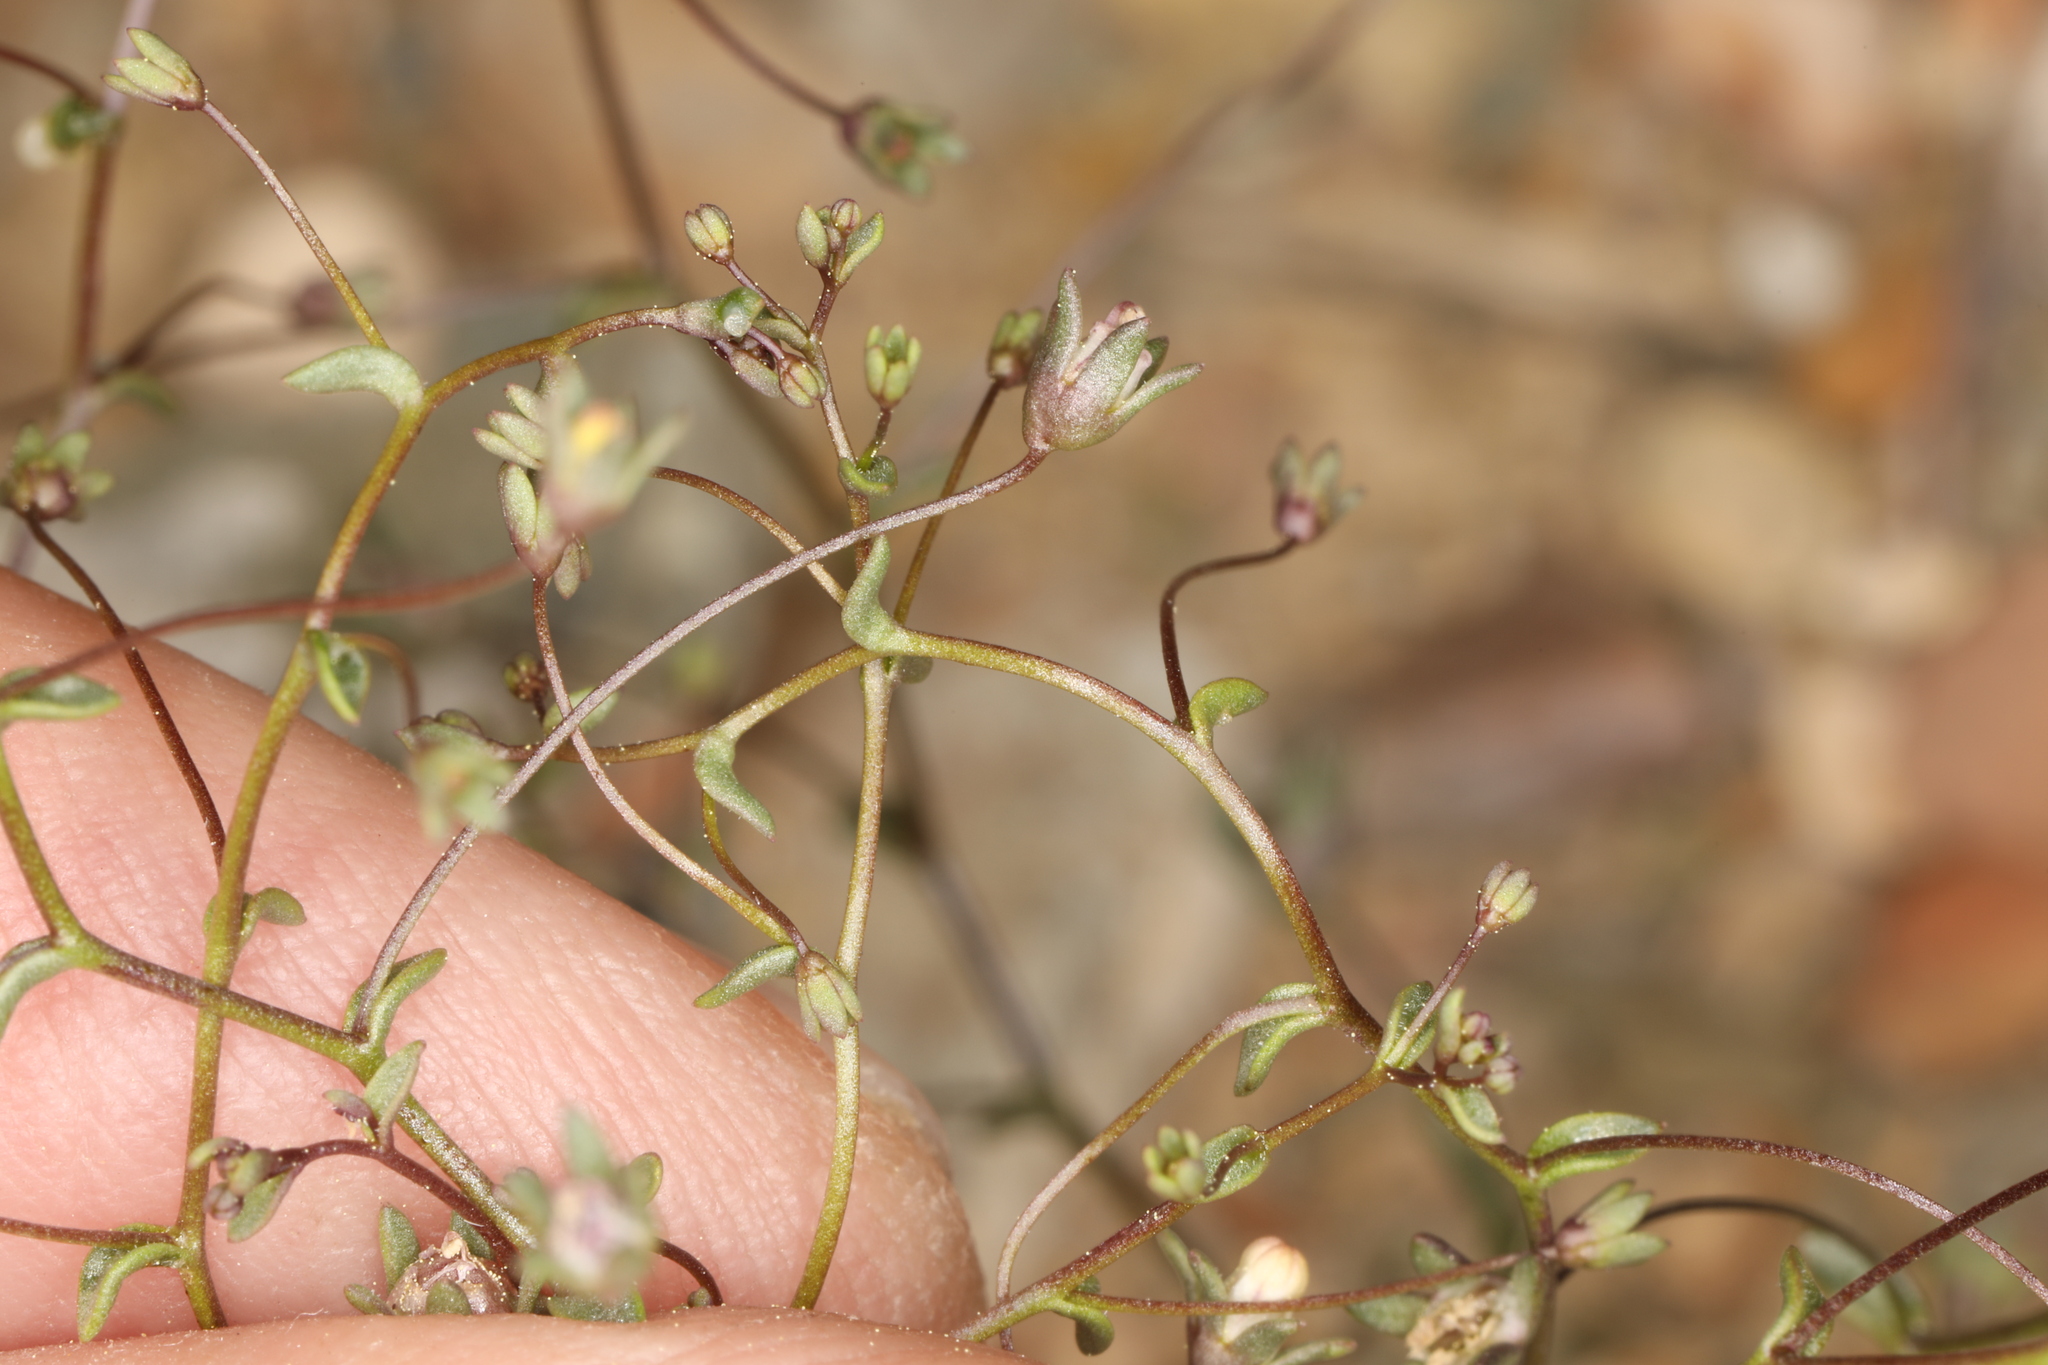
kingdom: Plantae
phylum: Tracheophyta
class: Magnoliopsida
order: Asterales
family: Campanulaceae
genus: Nemacladus
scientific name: Nemacladus inyoensis
